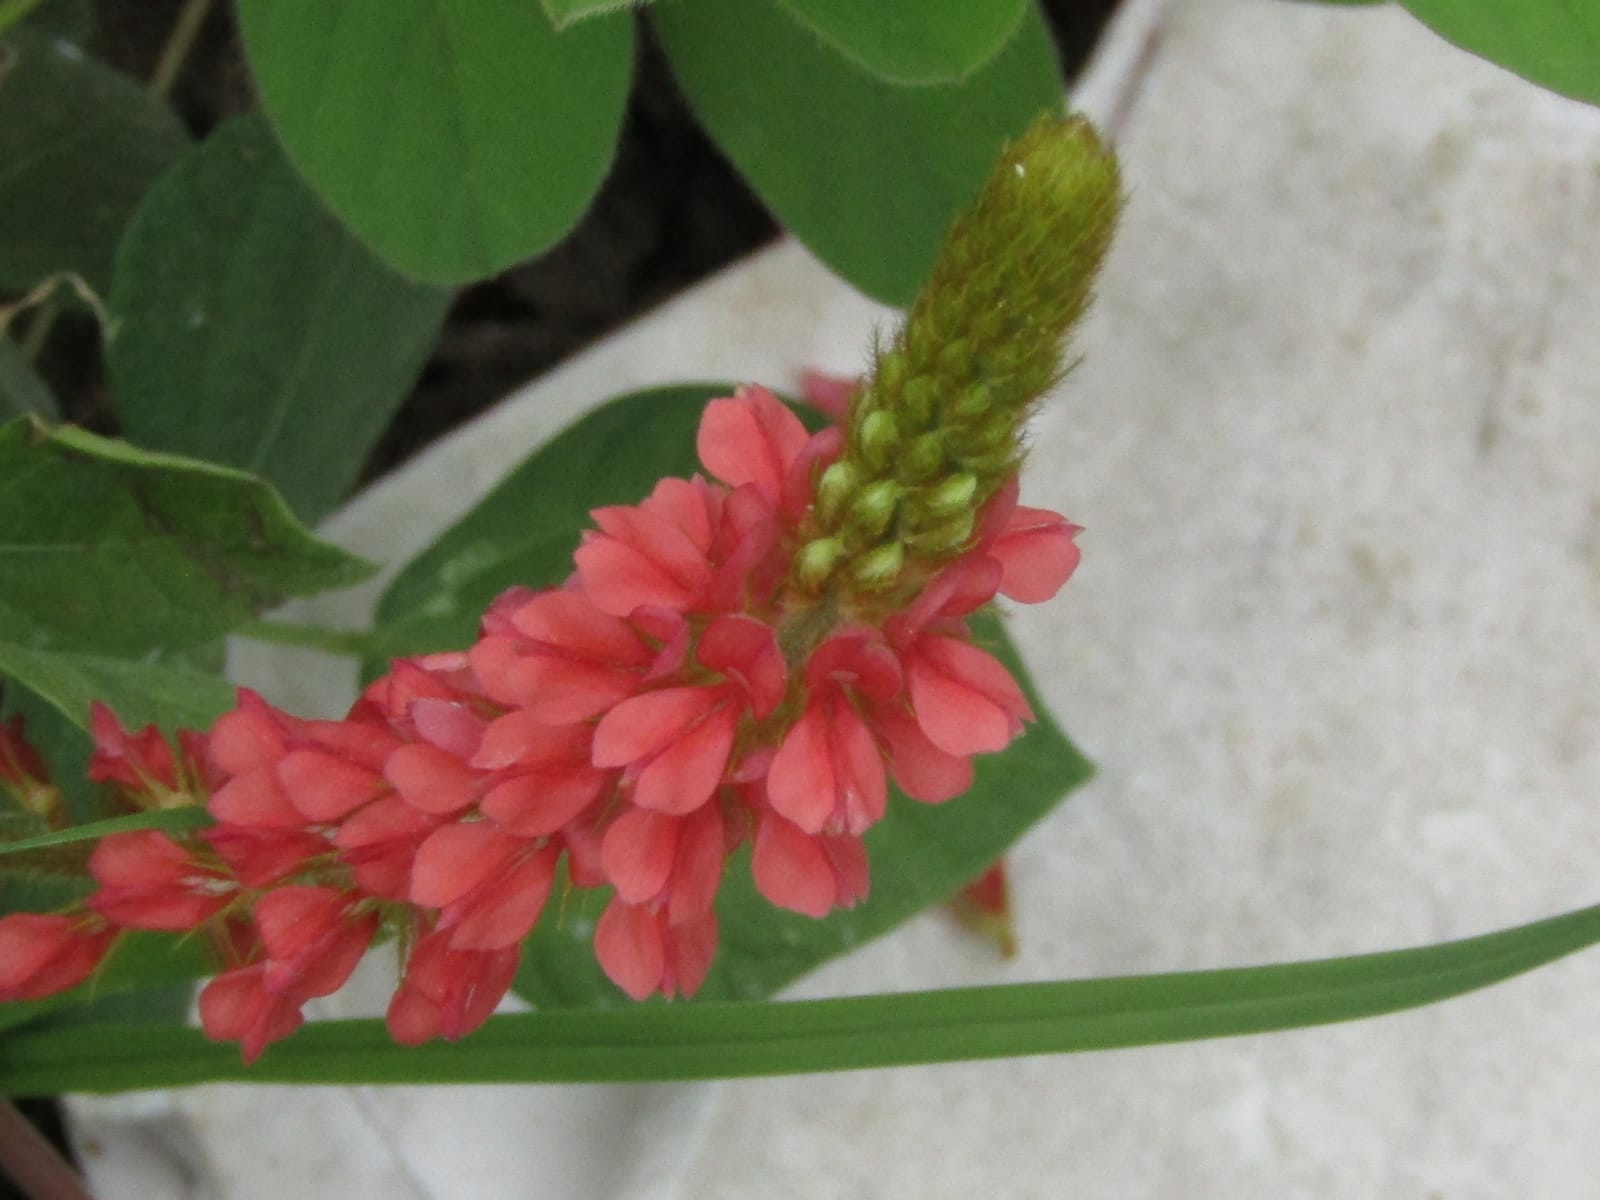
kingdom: Plantae
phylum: Tracheophyta
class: Magnoliopsida
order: Fabales
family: Fabaceae
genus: Indigofera
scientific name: Indigofera hirsuta
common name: Hairy indigo
